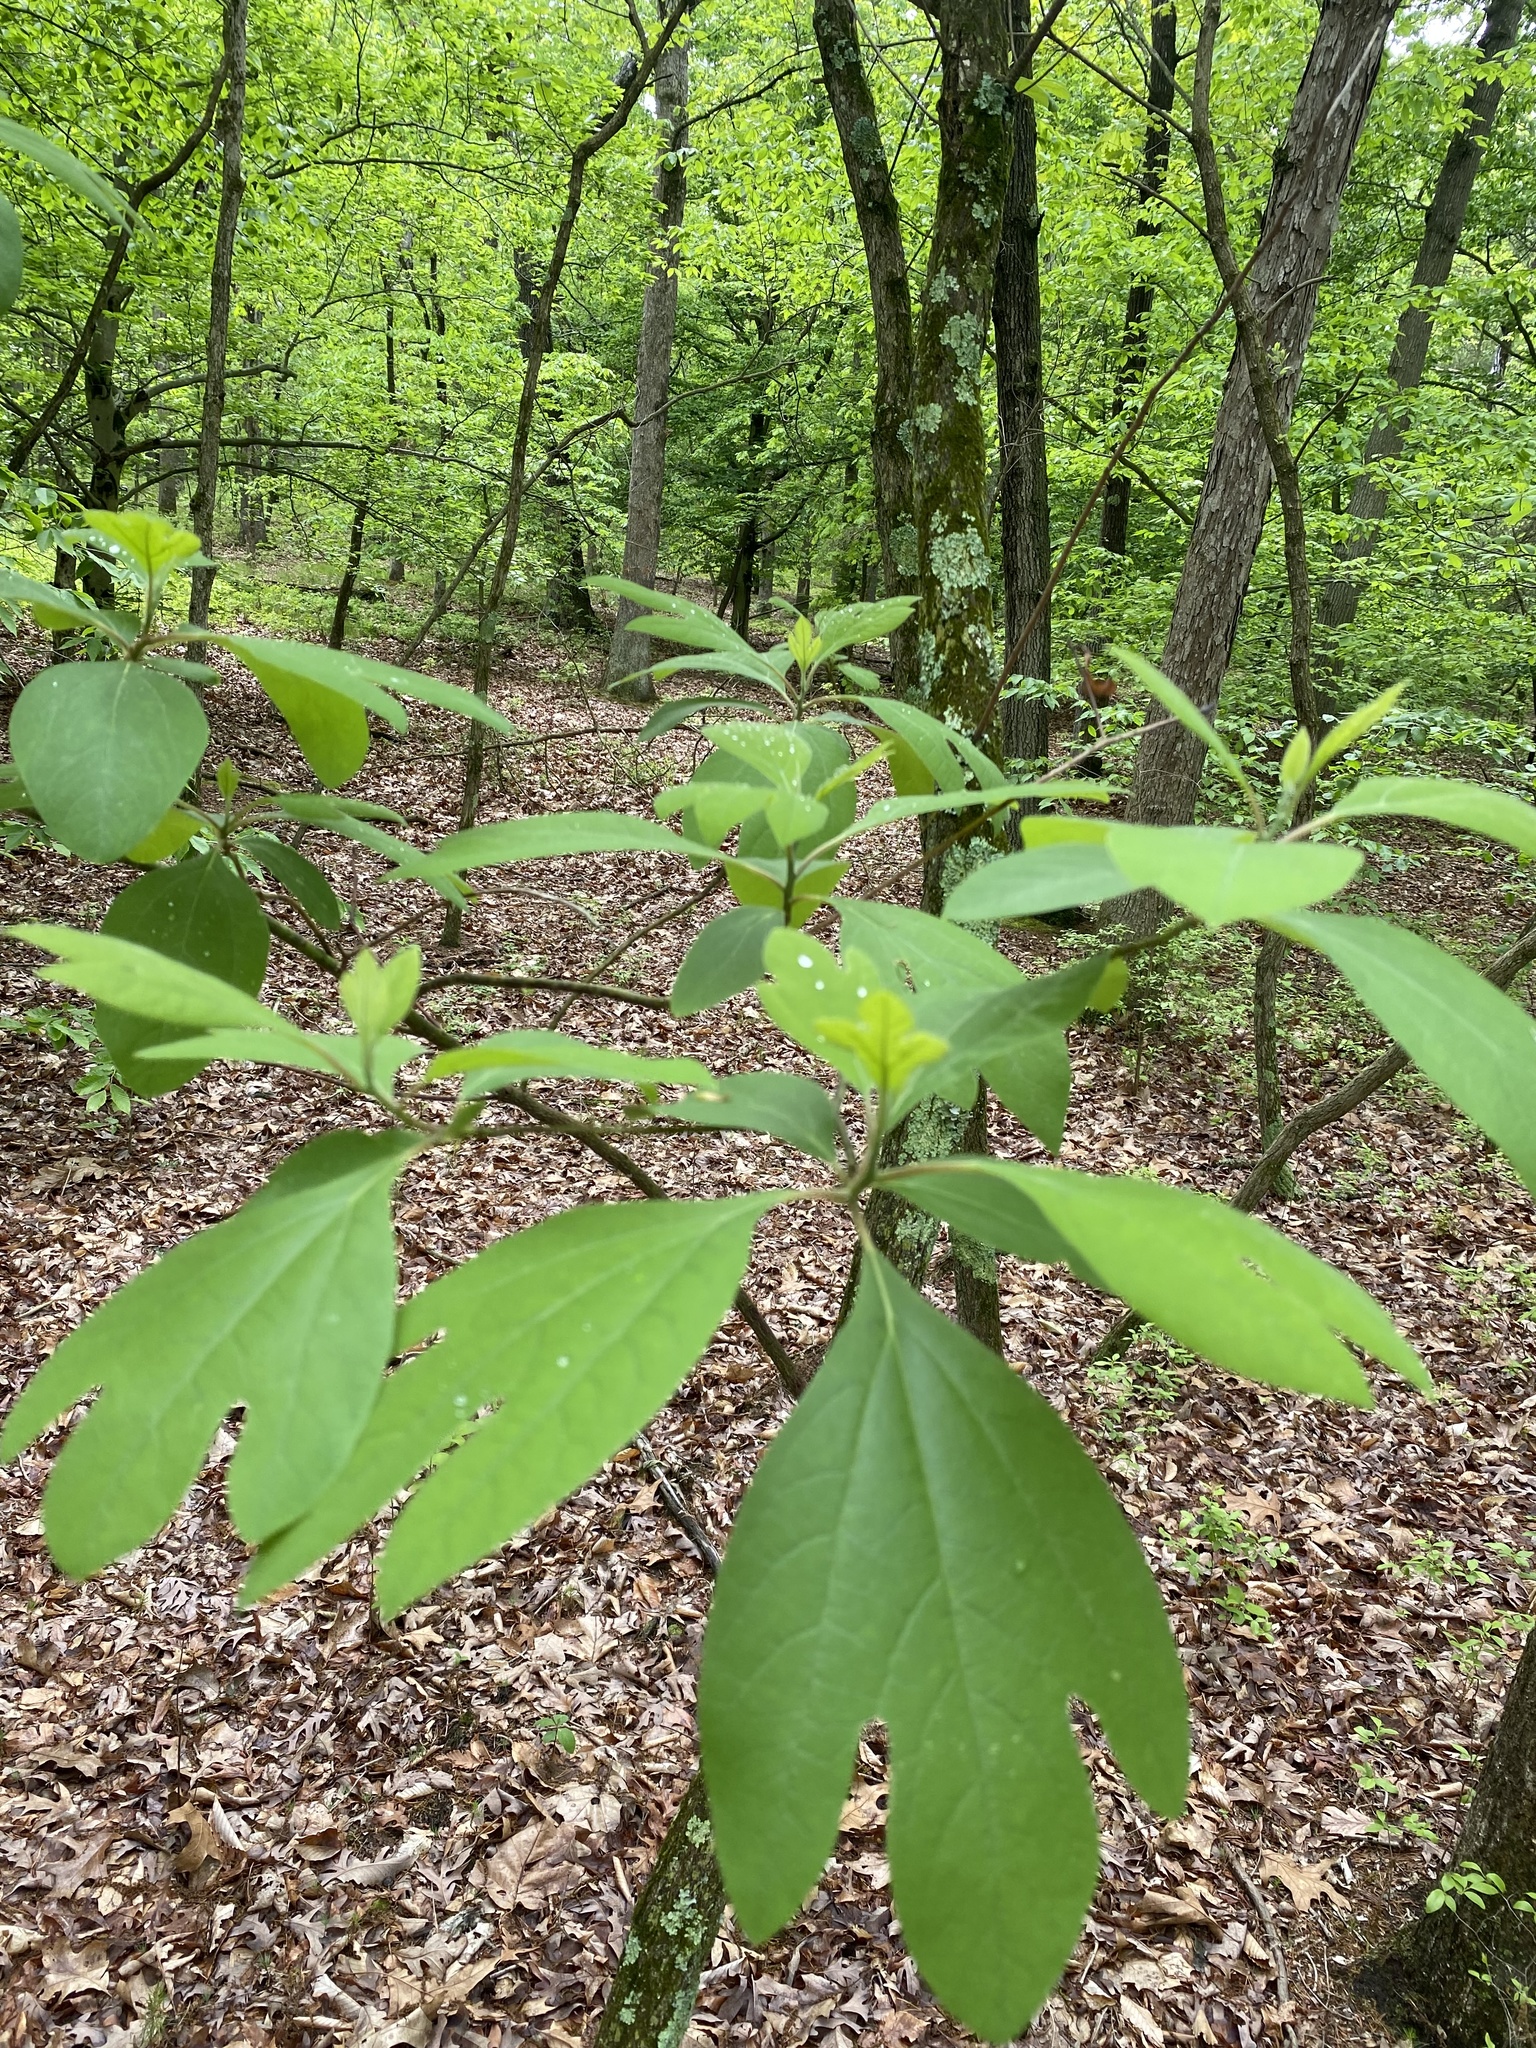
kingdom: Plantae
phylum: Tracheophyta
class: Magnoliopsida
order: Laurales
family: Lauraceae
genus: Sassafras
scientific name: Sassafras albidum
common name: Sassafras
